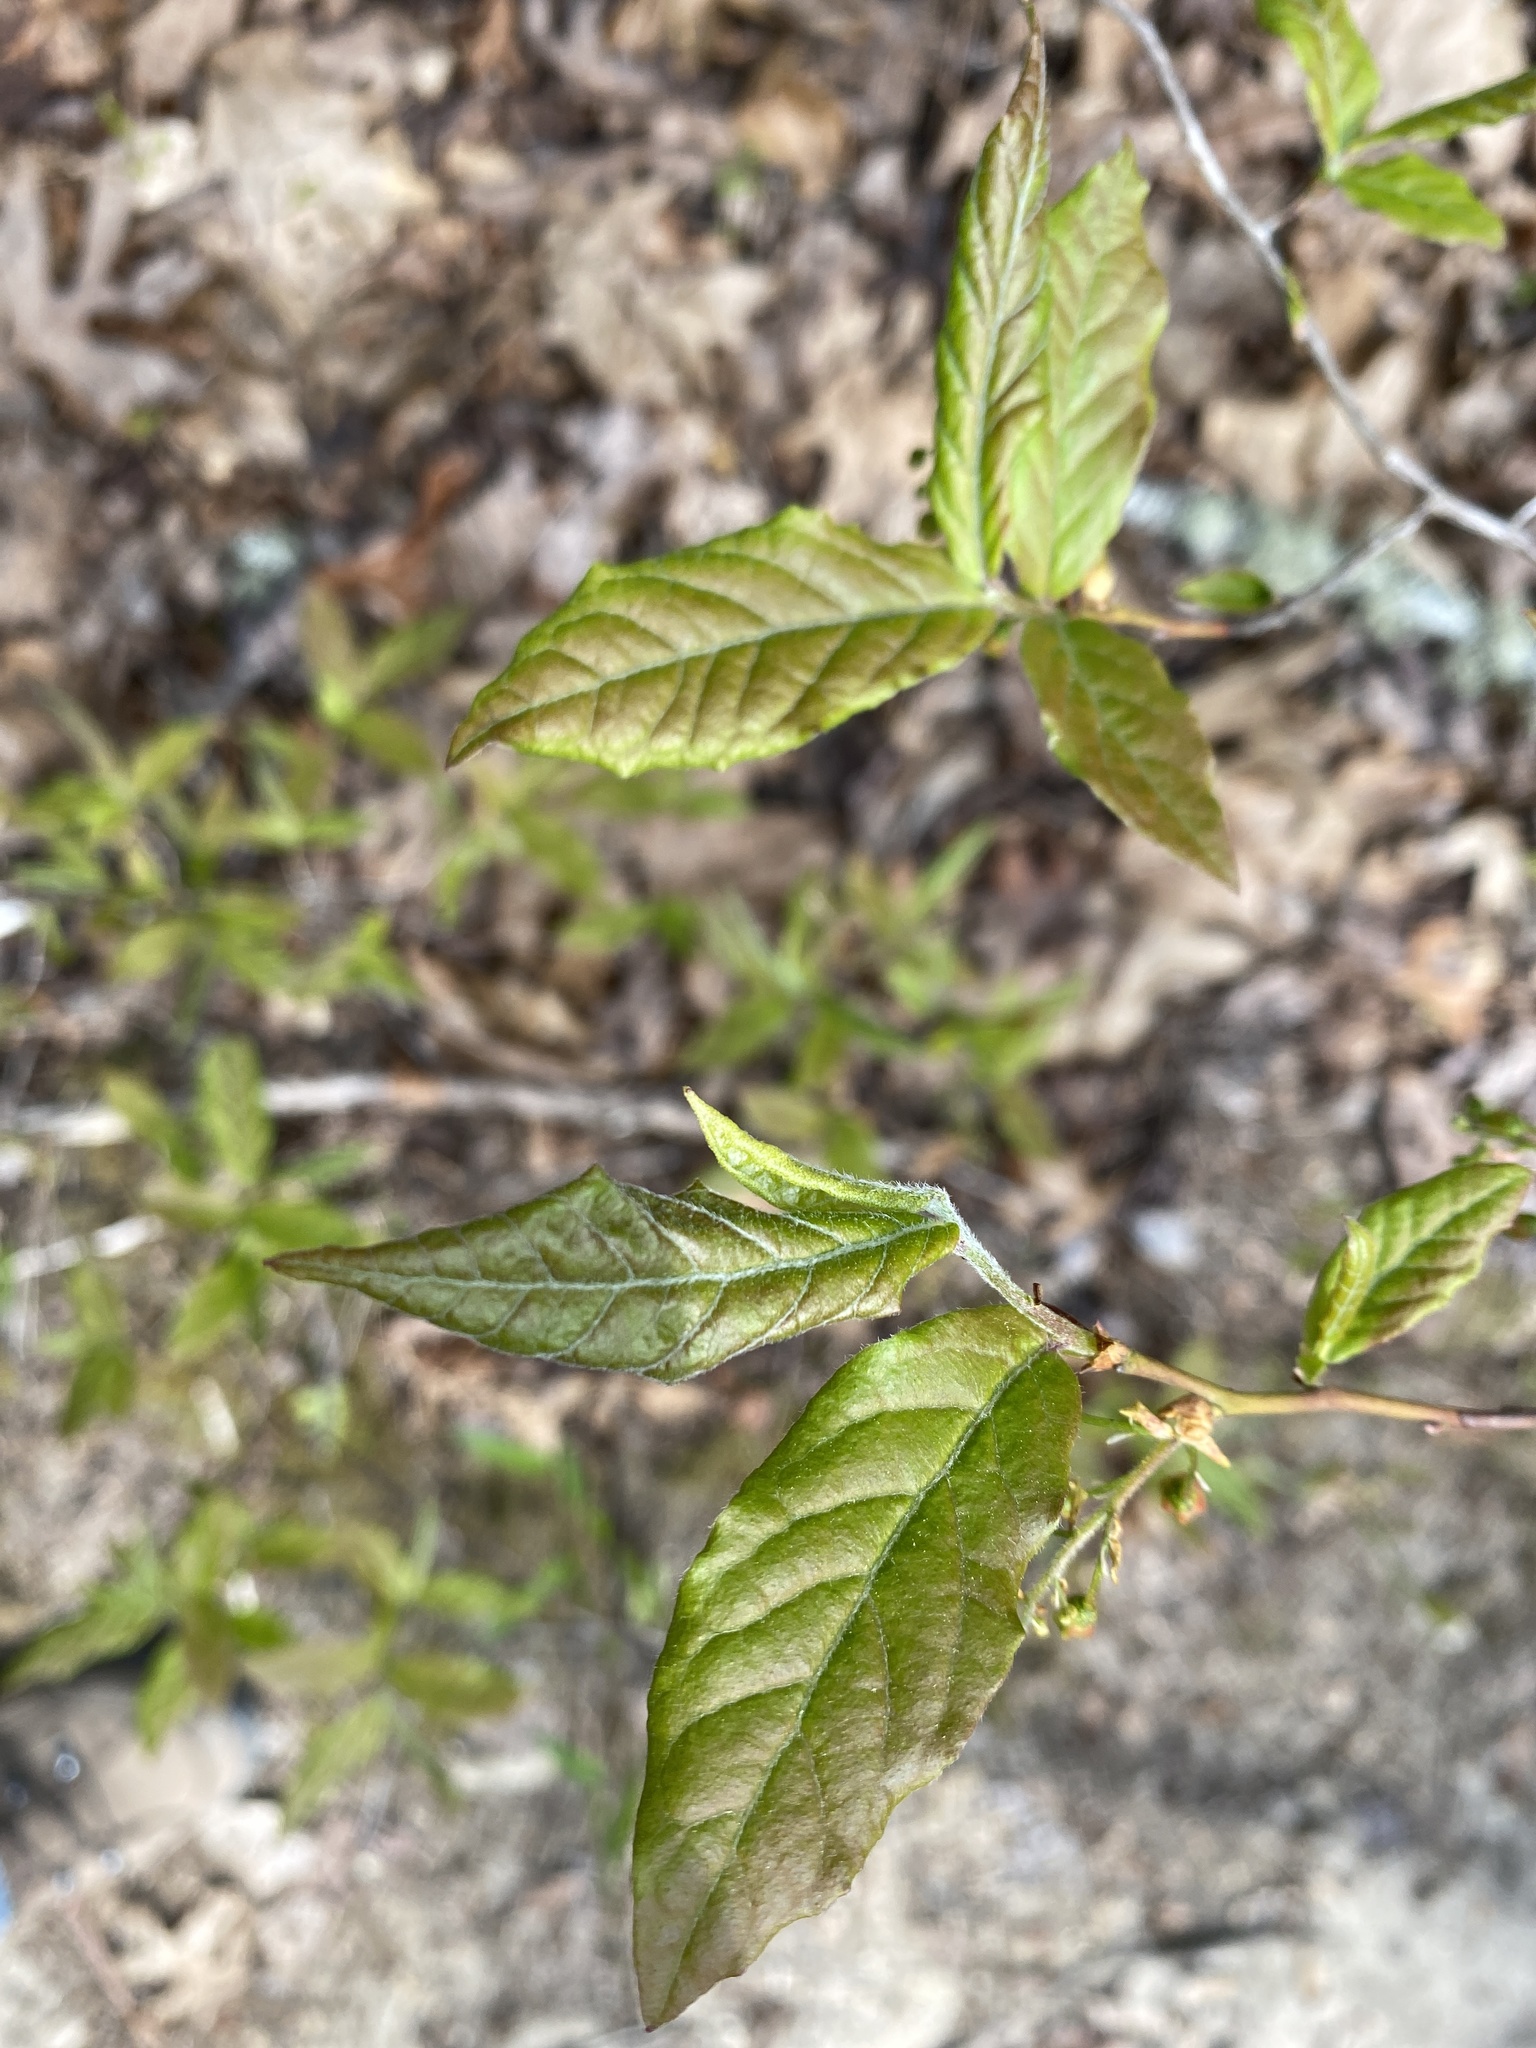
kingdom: Plantae
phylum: Tracheophyta
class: Magnoliopsida
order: Ericales
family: Ericaceae
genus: Gaylussacia
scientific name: Gaylussacia ursina
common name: Bear huckleberry
